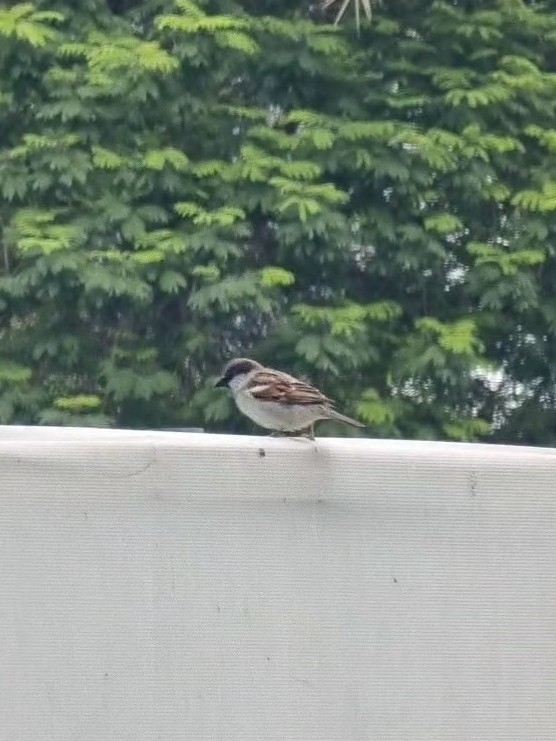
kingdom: Animalia
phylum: Chordata
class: Aves
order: Passeriformes
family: Passeridae
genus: Passer
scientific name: Passer domesticus
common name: House sparrow
